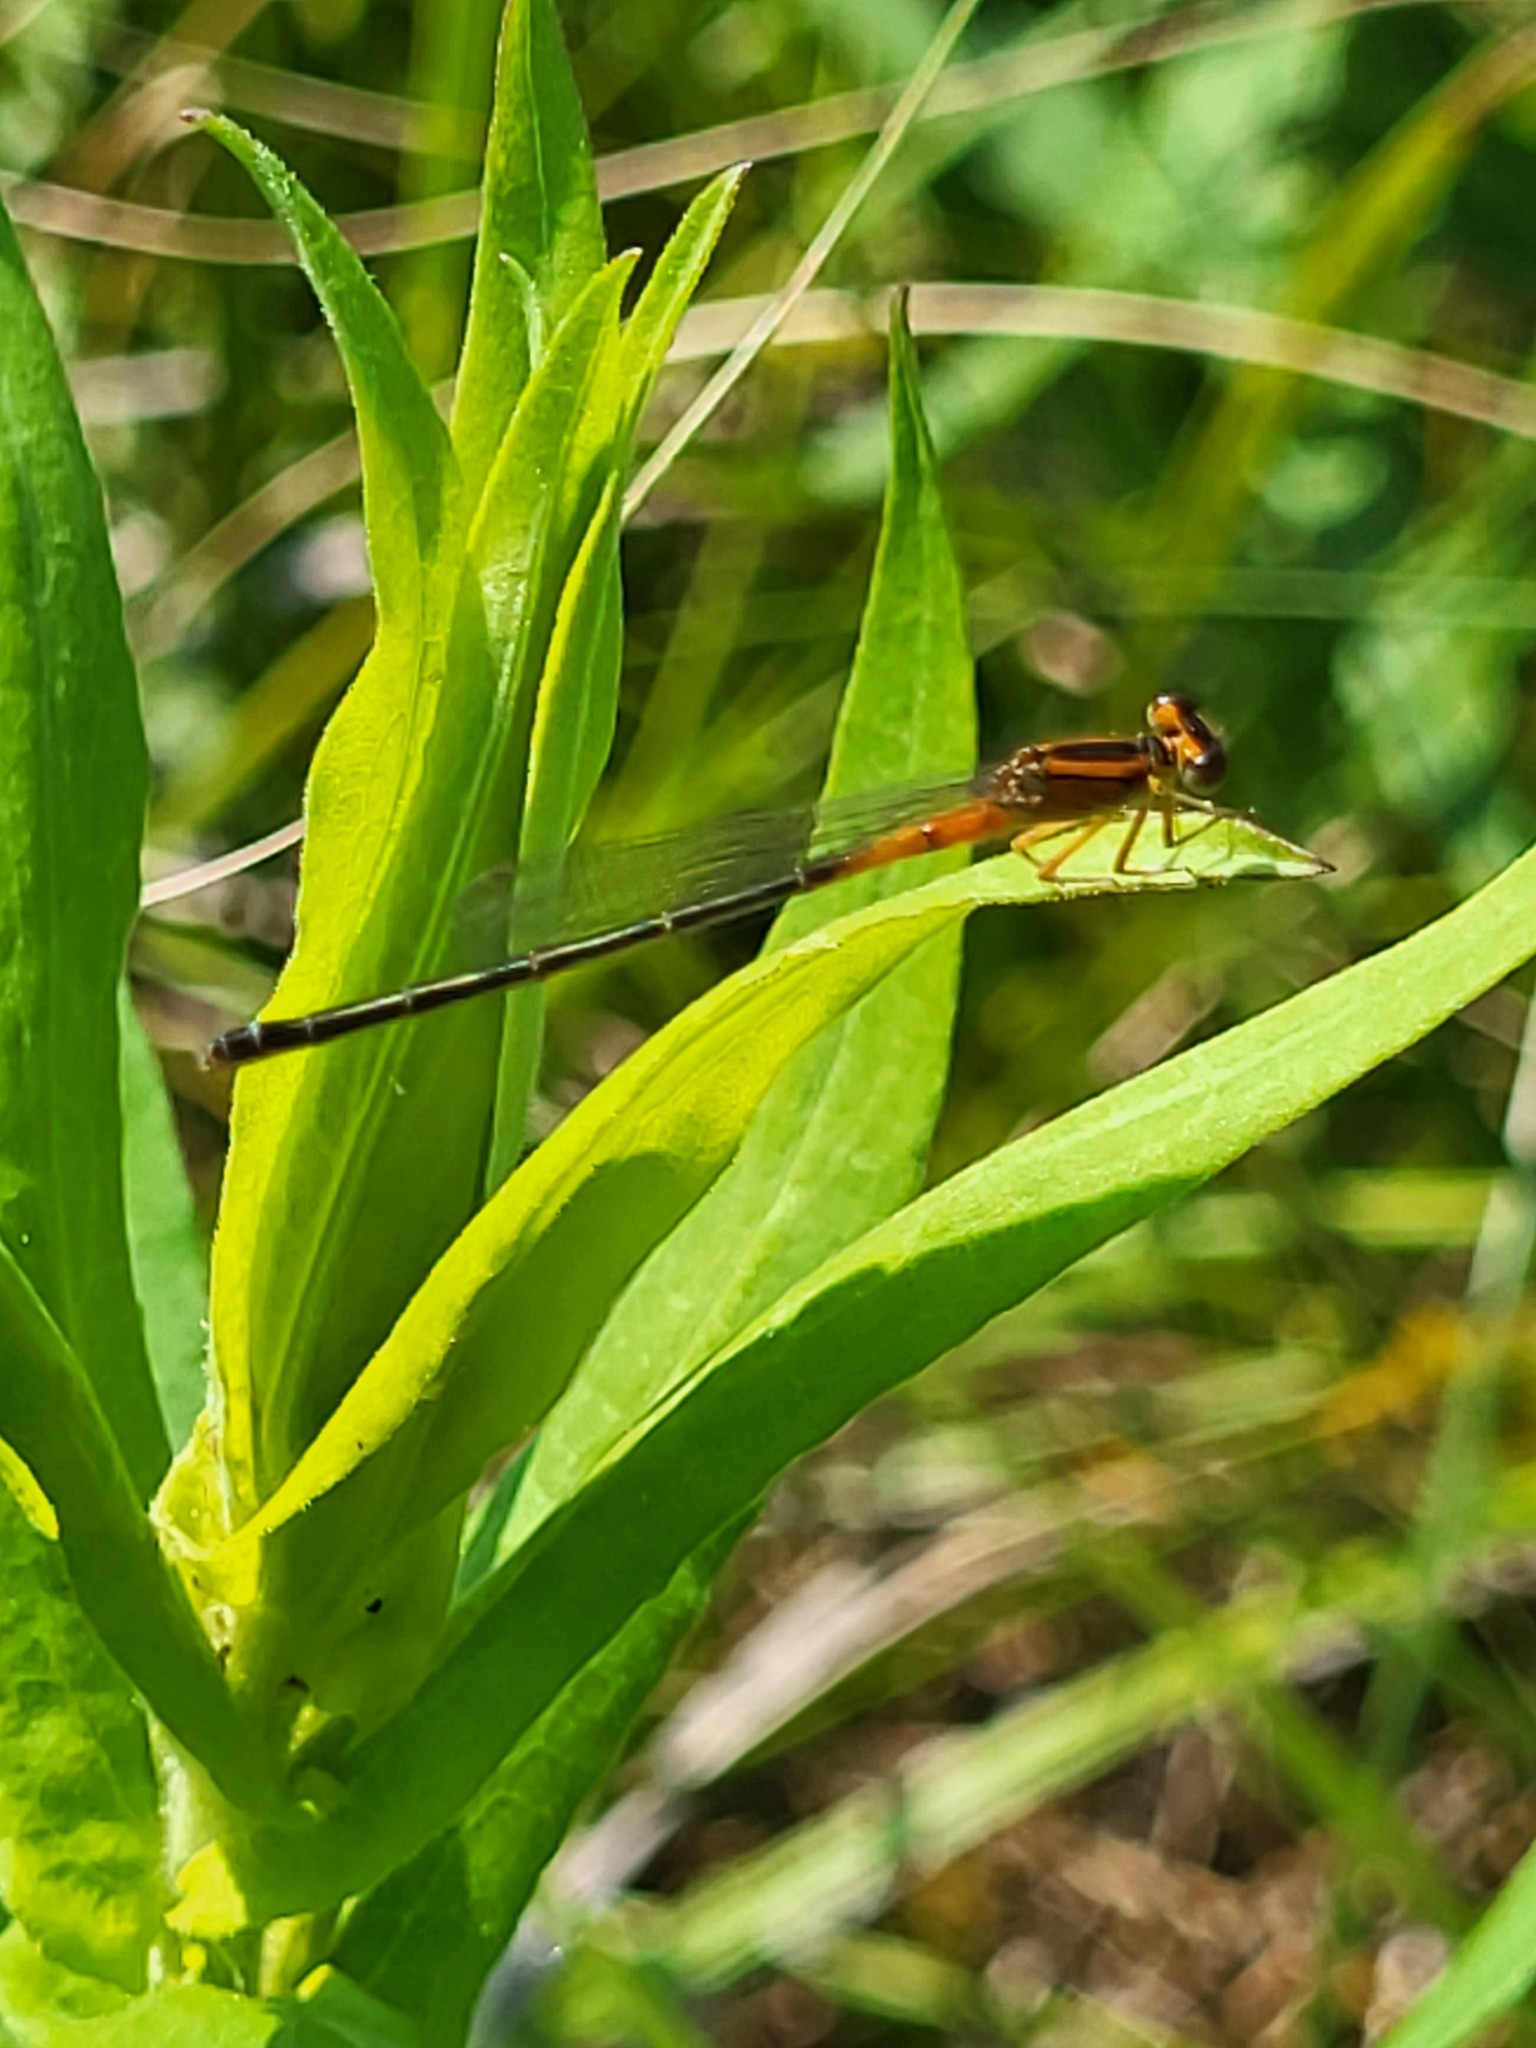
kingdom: Animalia
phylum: Arthropoda
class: Insecta
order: Odonata
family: Coenagrionidae
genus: Ischnura
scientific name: Ischnura verticalis
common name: Eastern forktail
